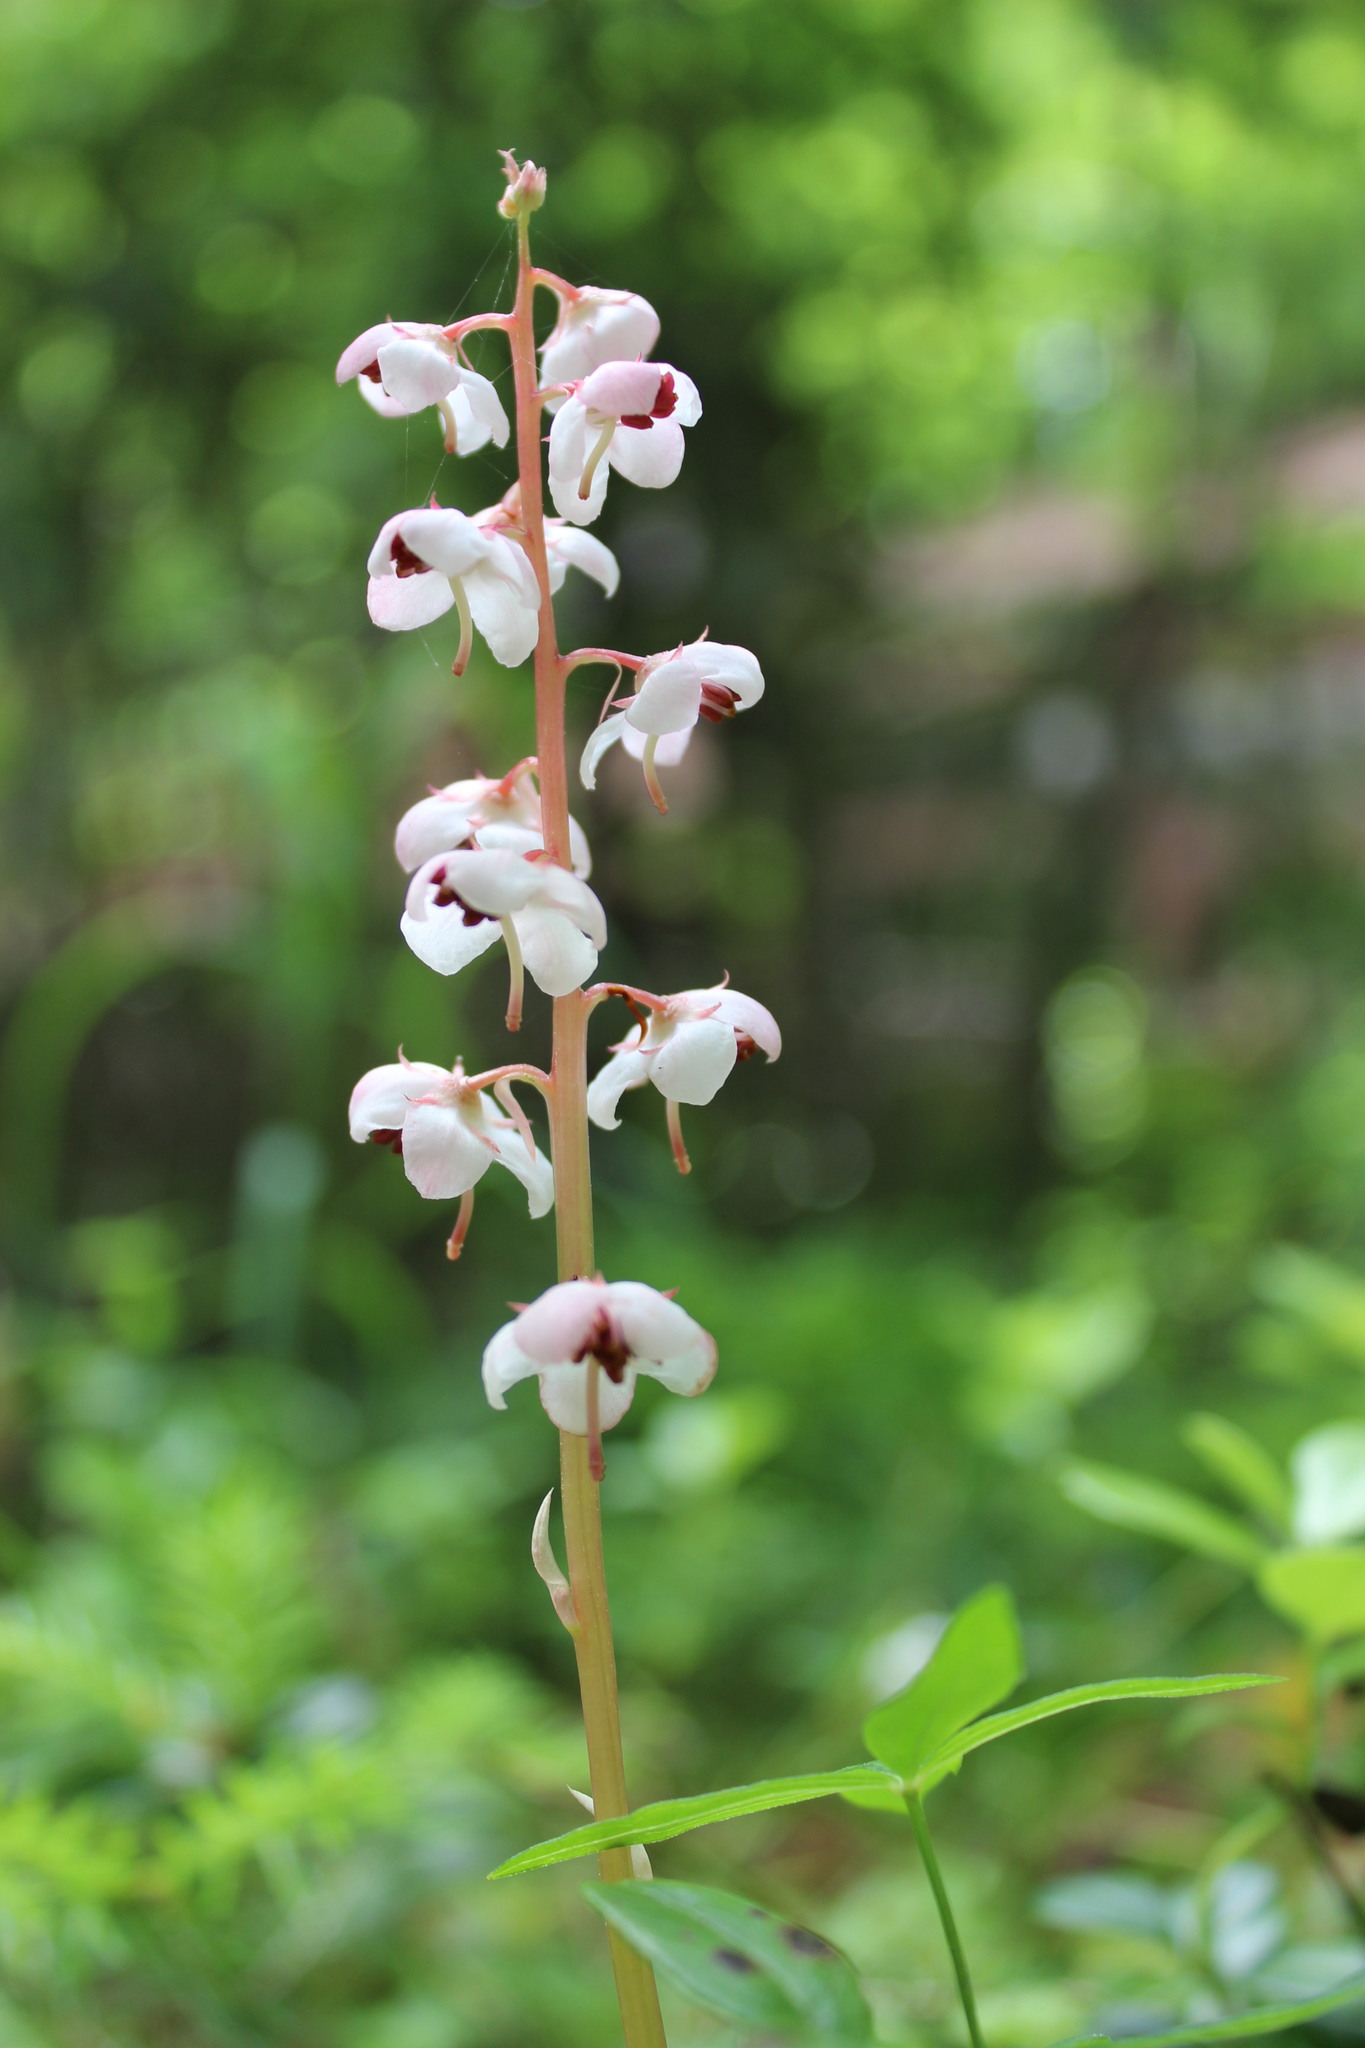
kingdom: Plantae
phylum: Tracheophyta
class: Magnoliopsida
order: Ericales
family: Ericaceae
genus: Pyrola
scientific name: Pyrola asarifolia
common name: Bog wintergreen
